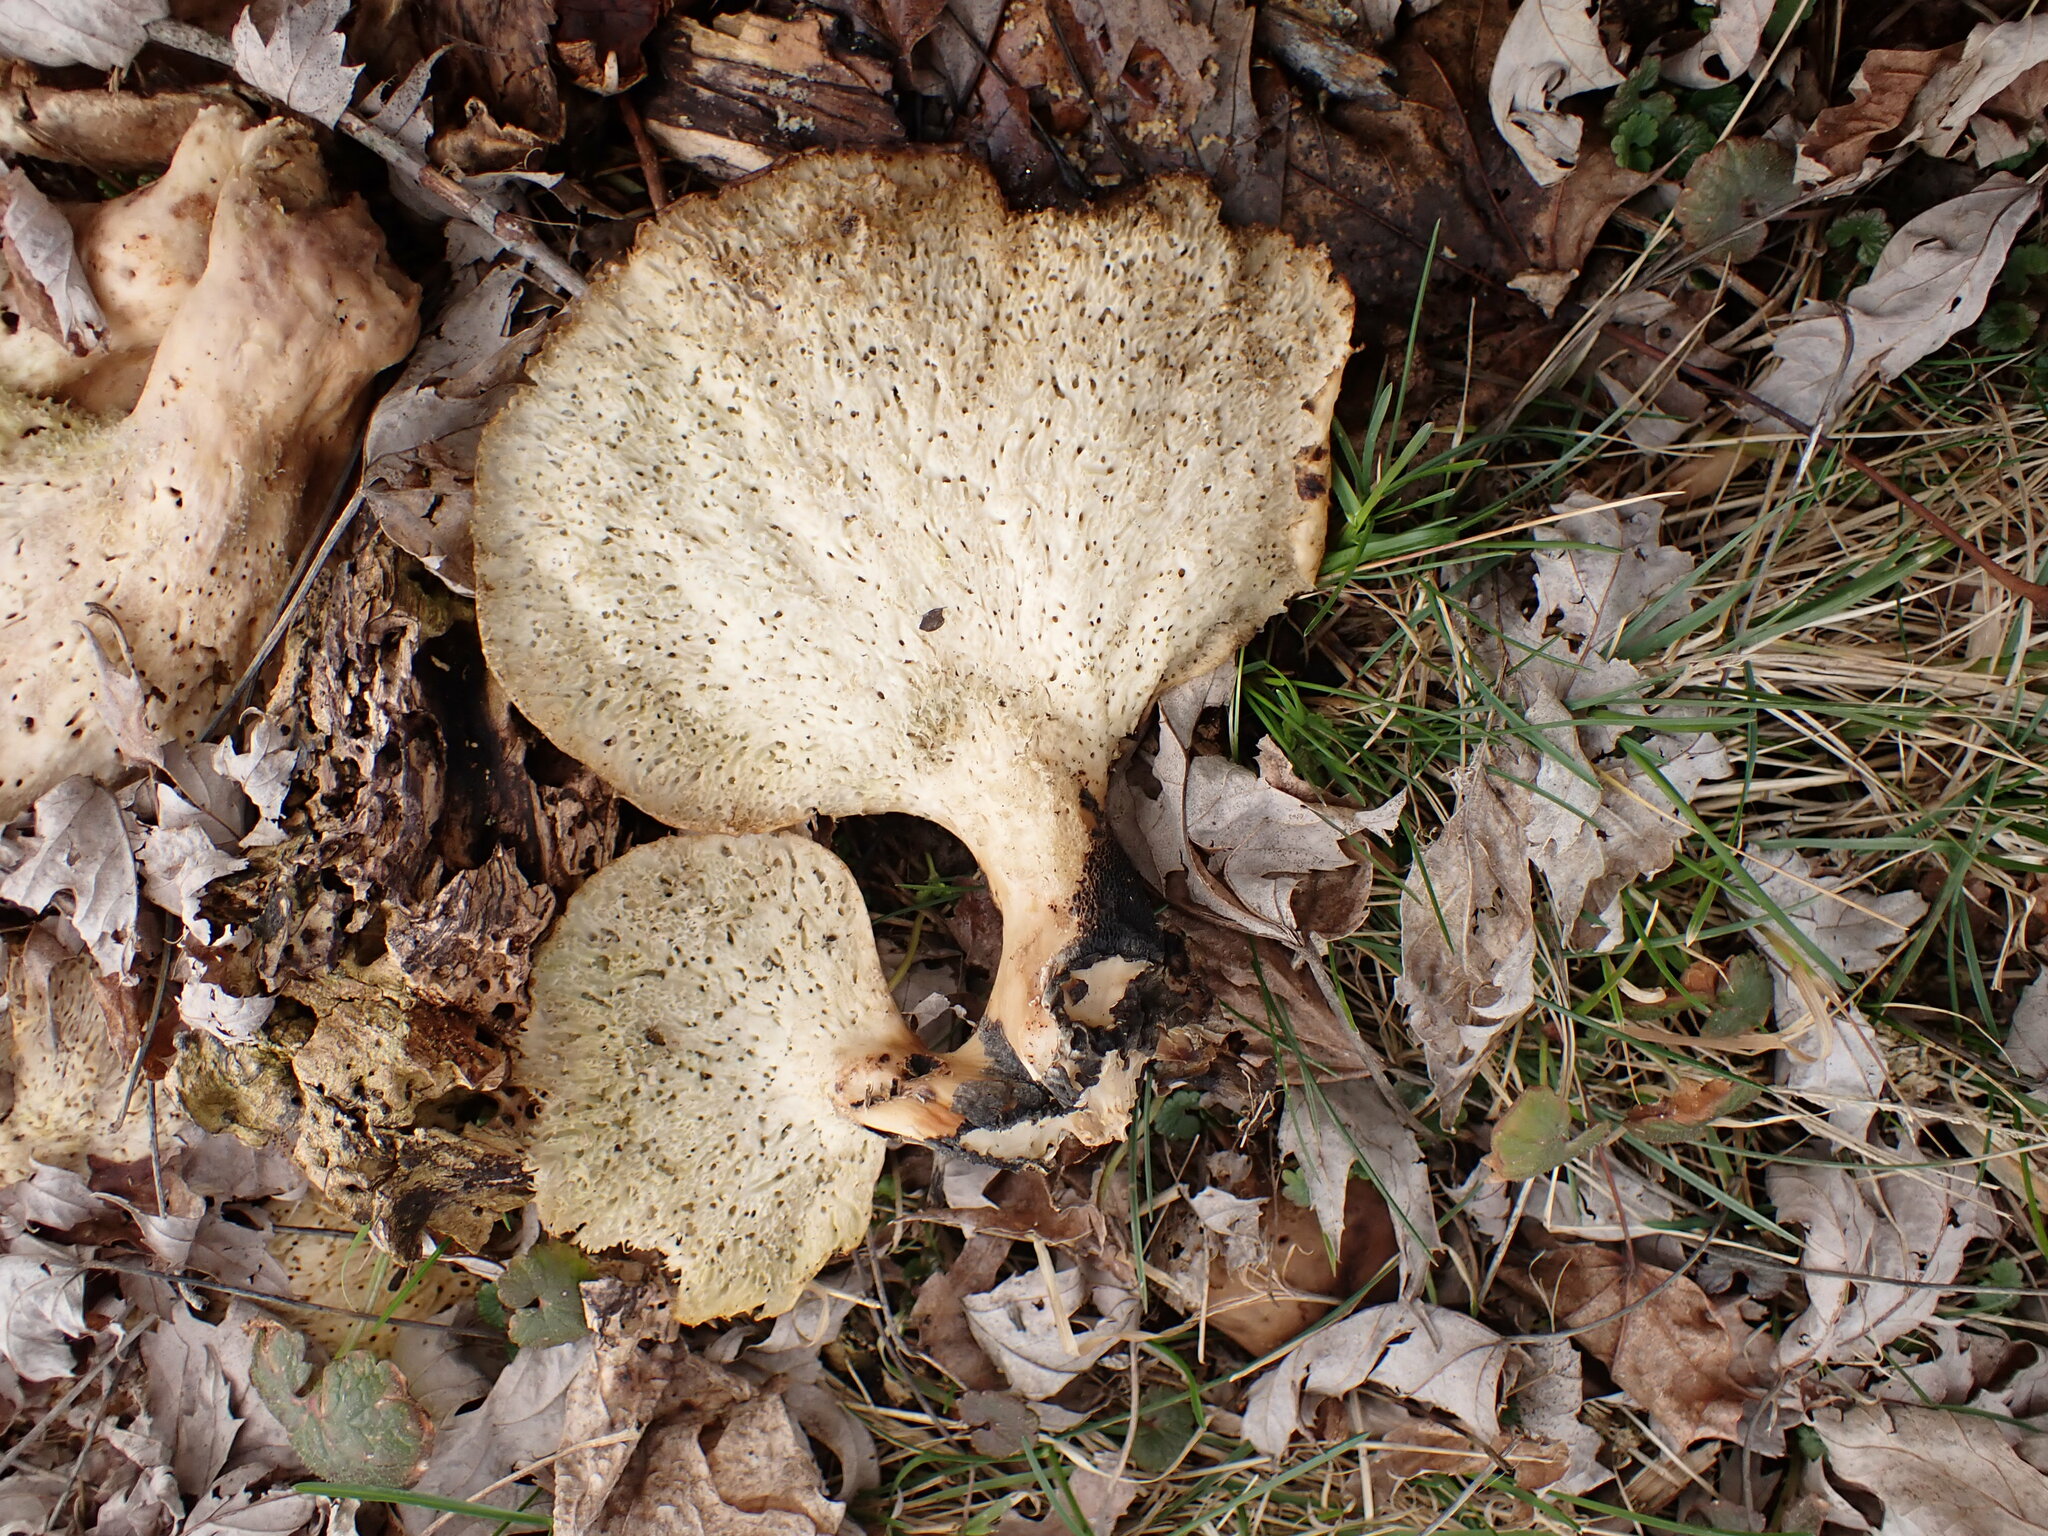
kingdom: Fungi
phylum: Basidiomycota
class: Agaricomycetes
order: Polyporales
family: Polyporaceae
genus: Cerioporus
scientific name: Cerioporus squamosus
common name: Dryad's saddle
